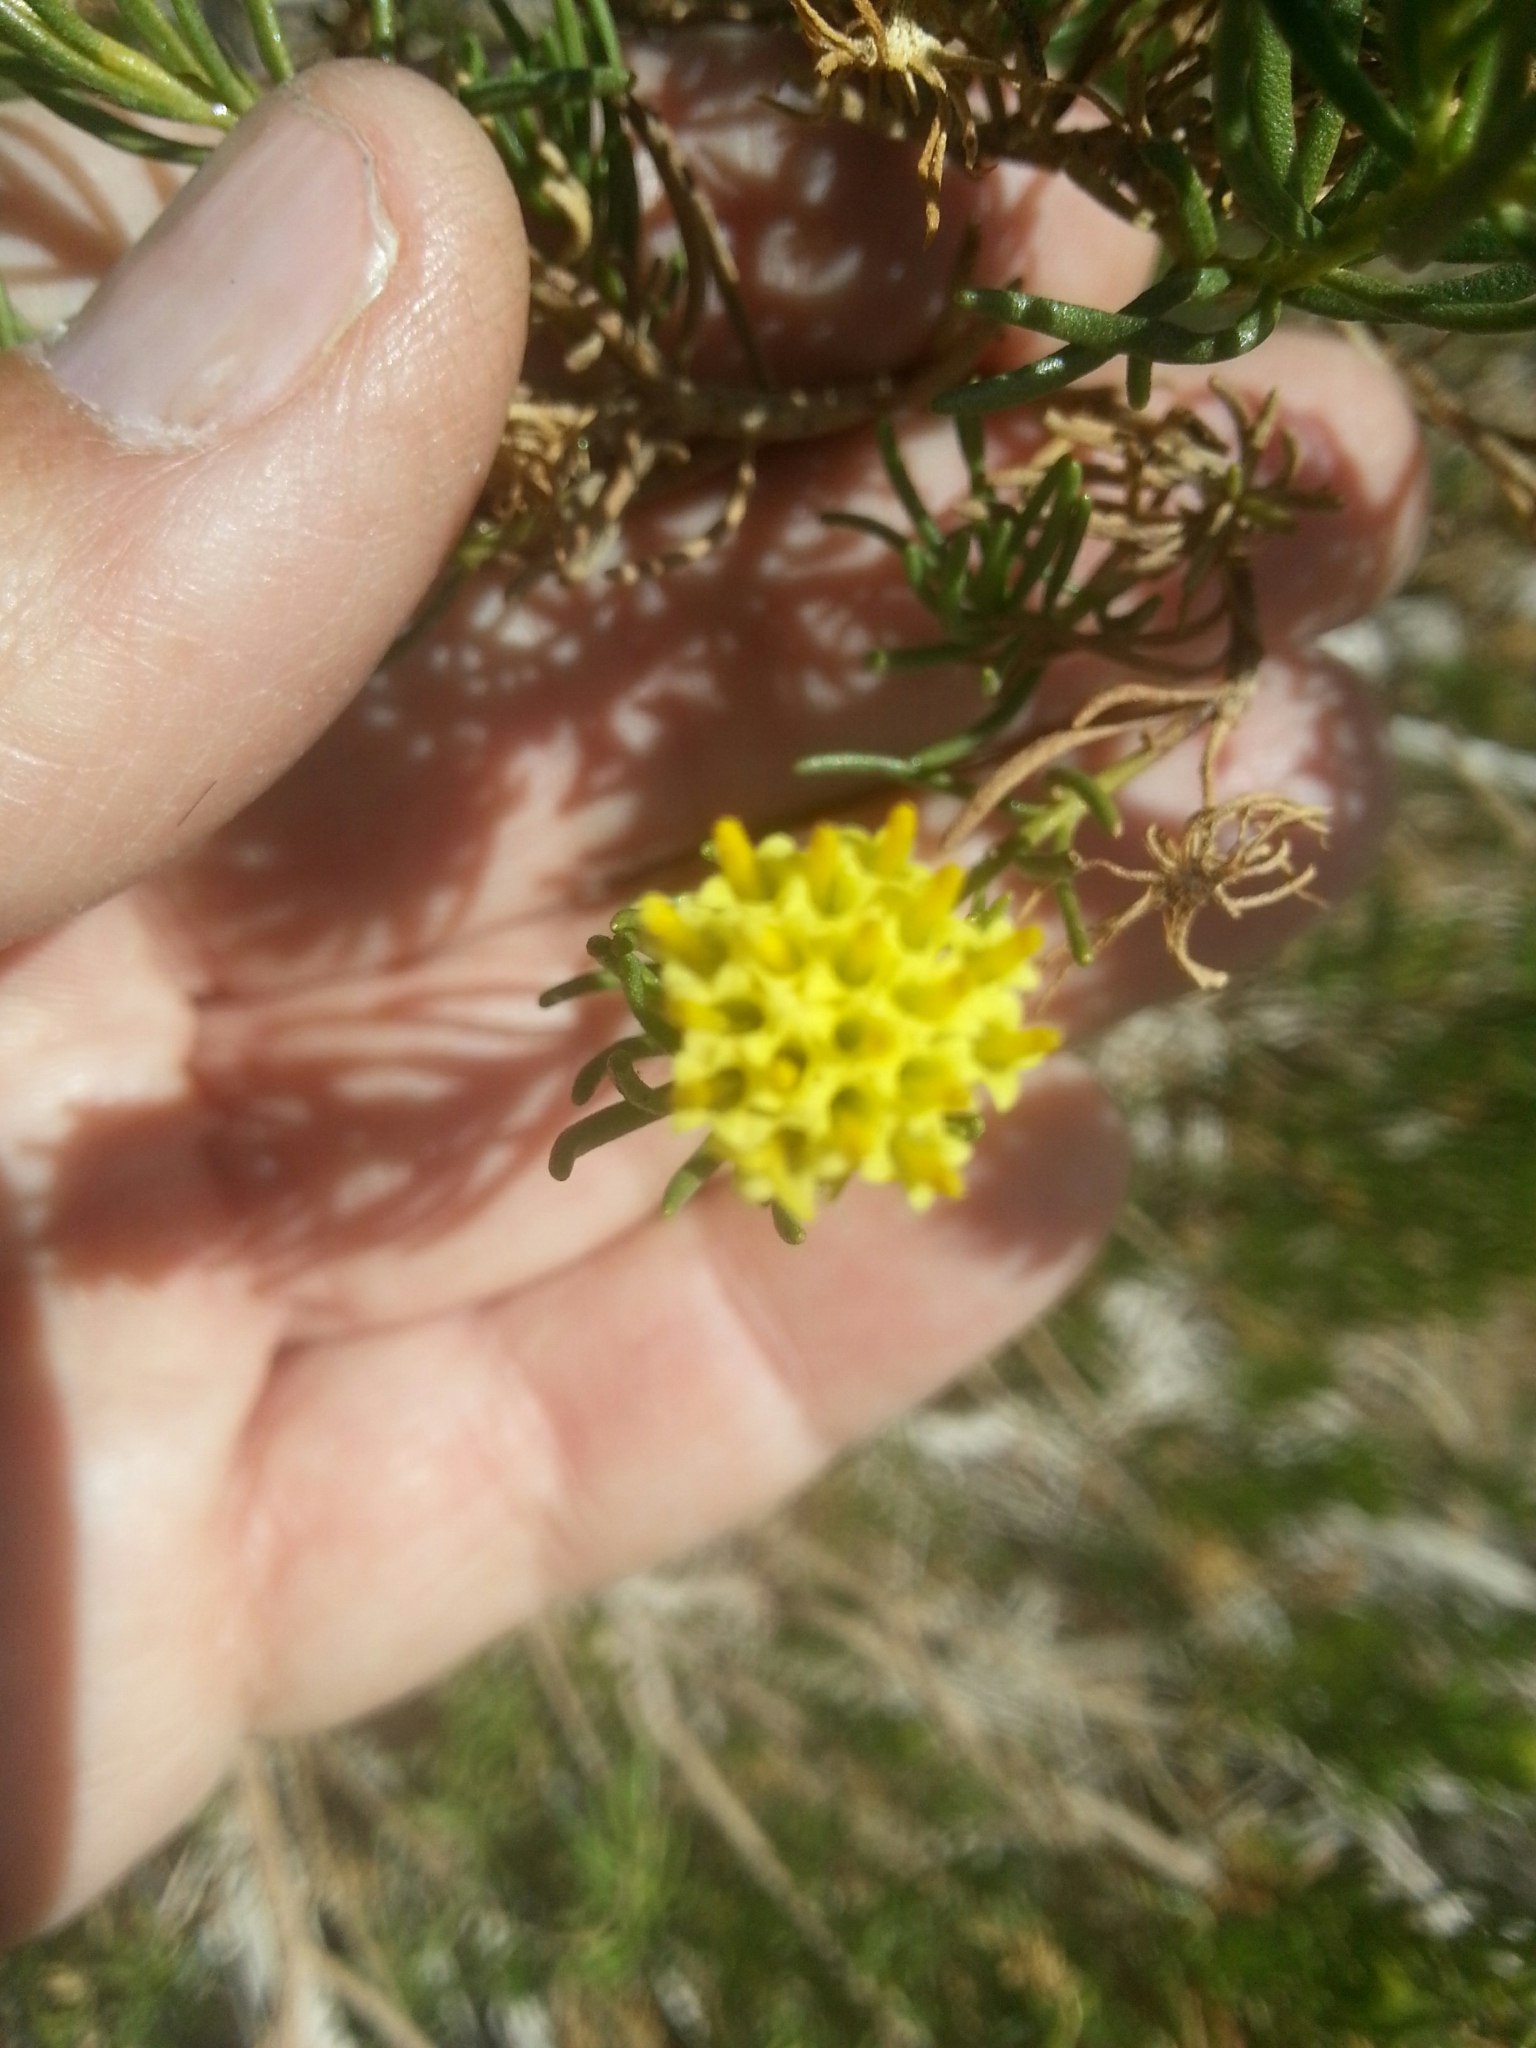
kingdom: Plantae
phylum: Tracheophyta
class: Magnoliopsida
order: Asterales
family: Asteraceae
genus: Peucephyllum
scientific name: Peucephyllum schottii
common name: Pygmy-cedar
